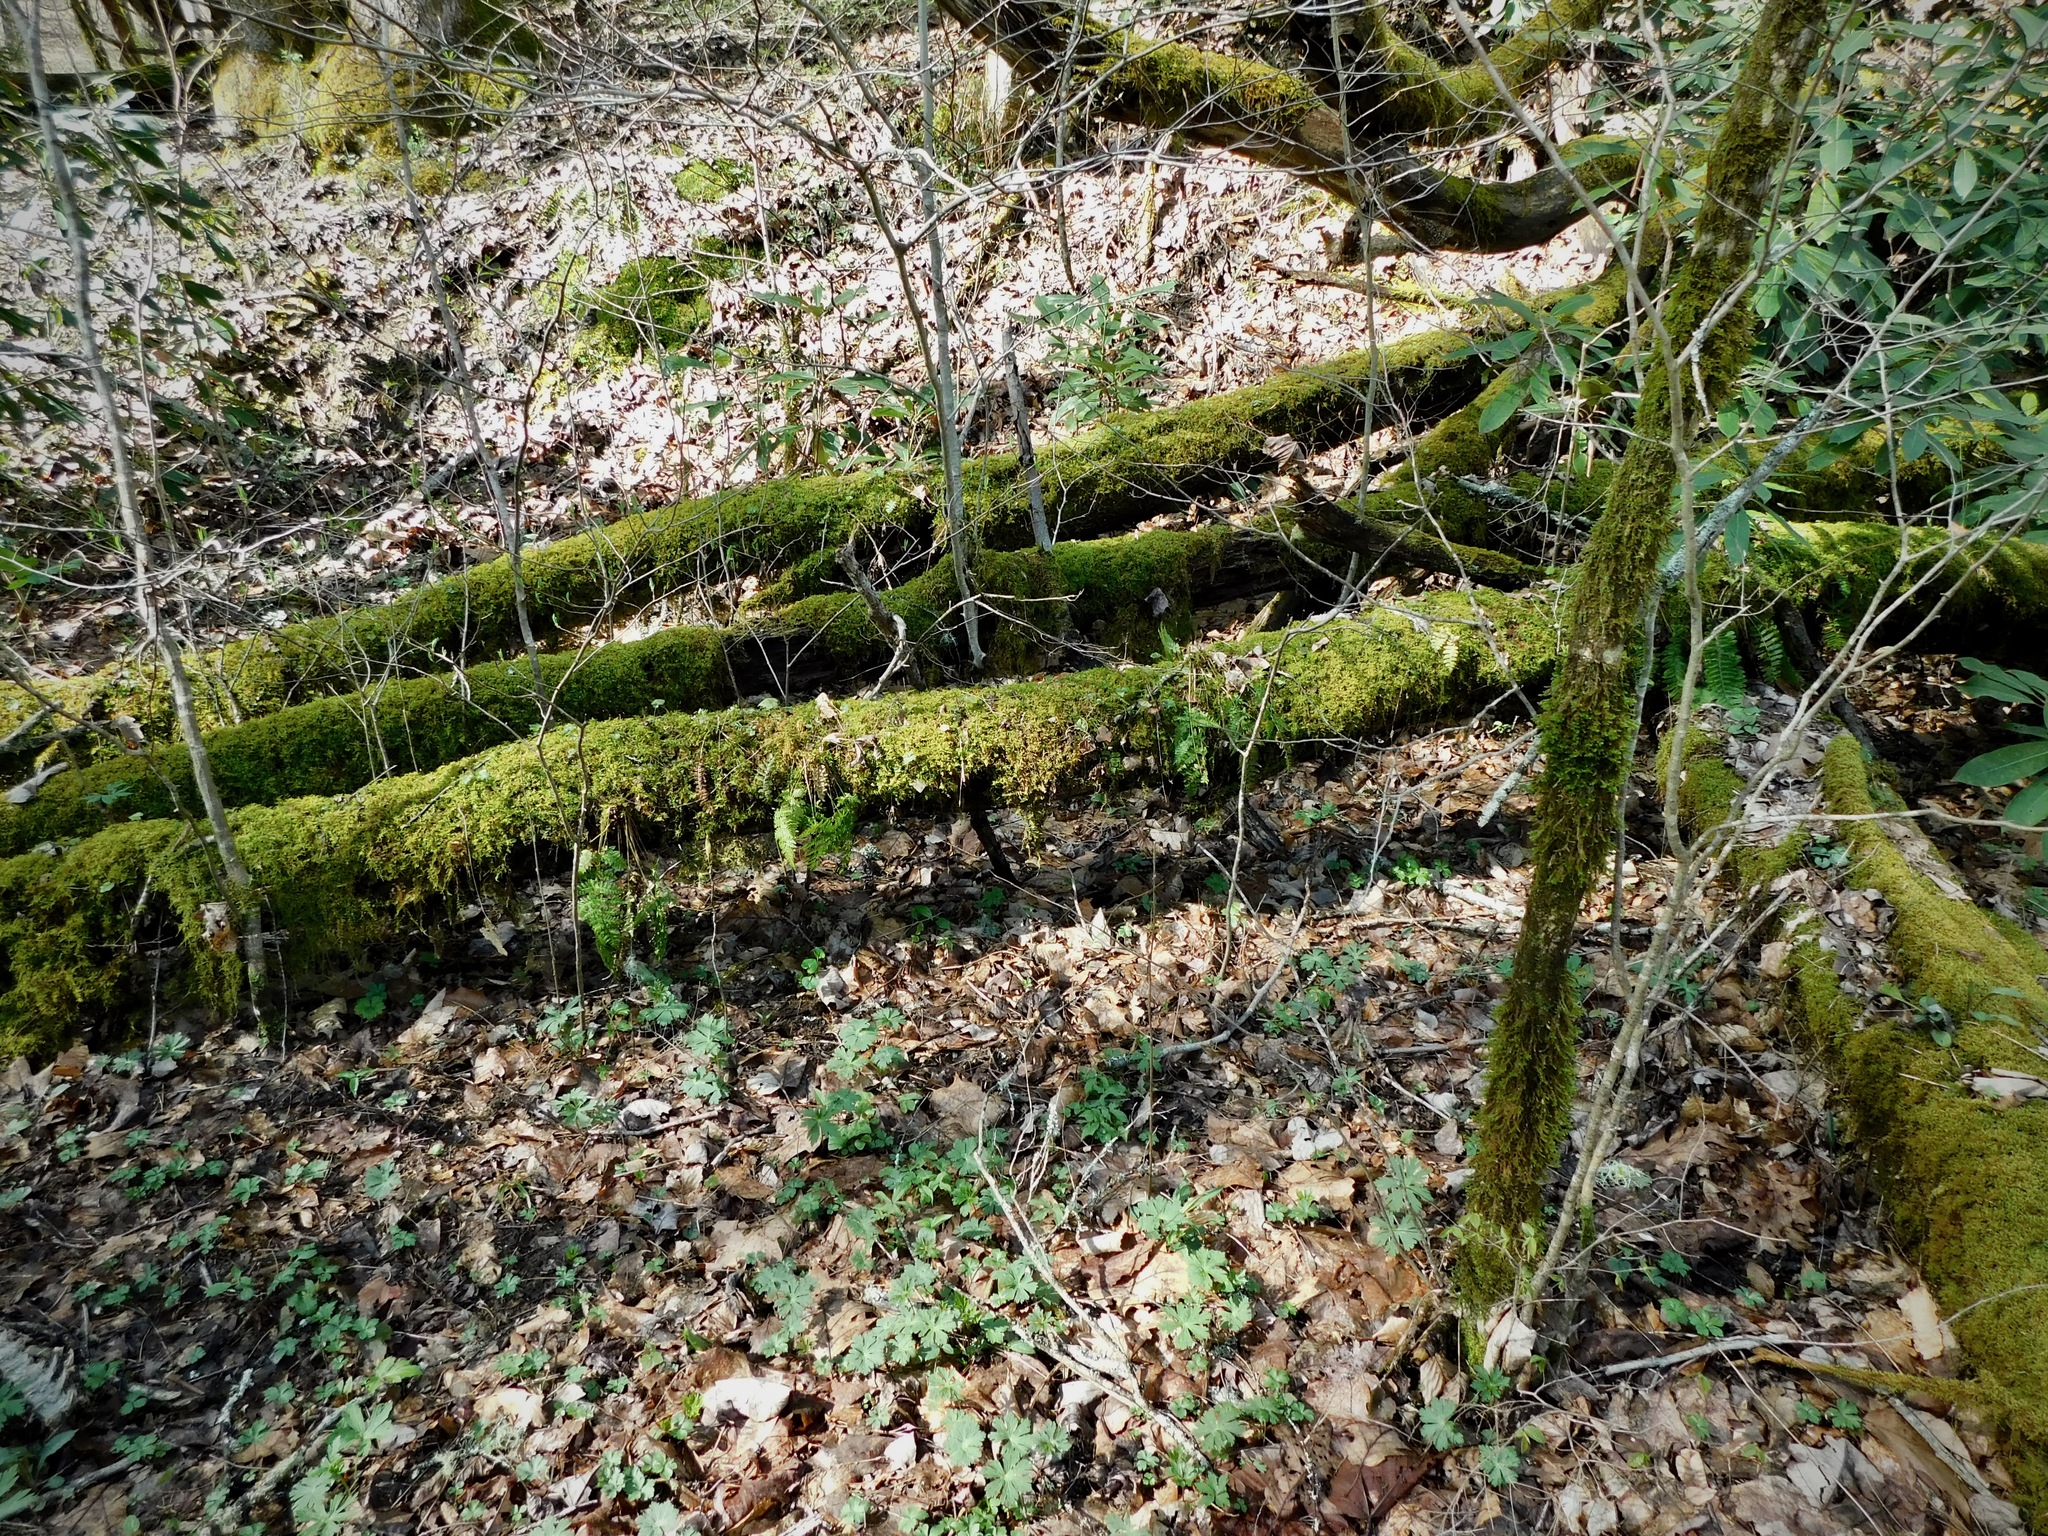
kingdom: Plantae
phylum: Tracheophyta
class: Polypodiopsida
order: Polypodiales
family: Dryopteridaceae
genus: Polystichum
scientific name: Polystichum acrostichoides
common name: Christmas fern
